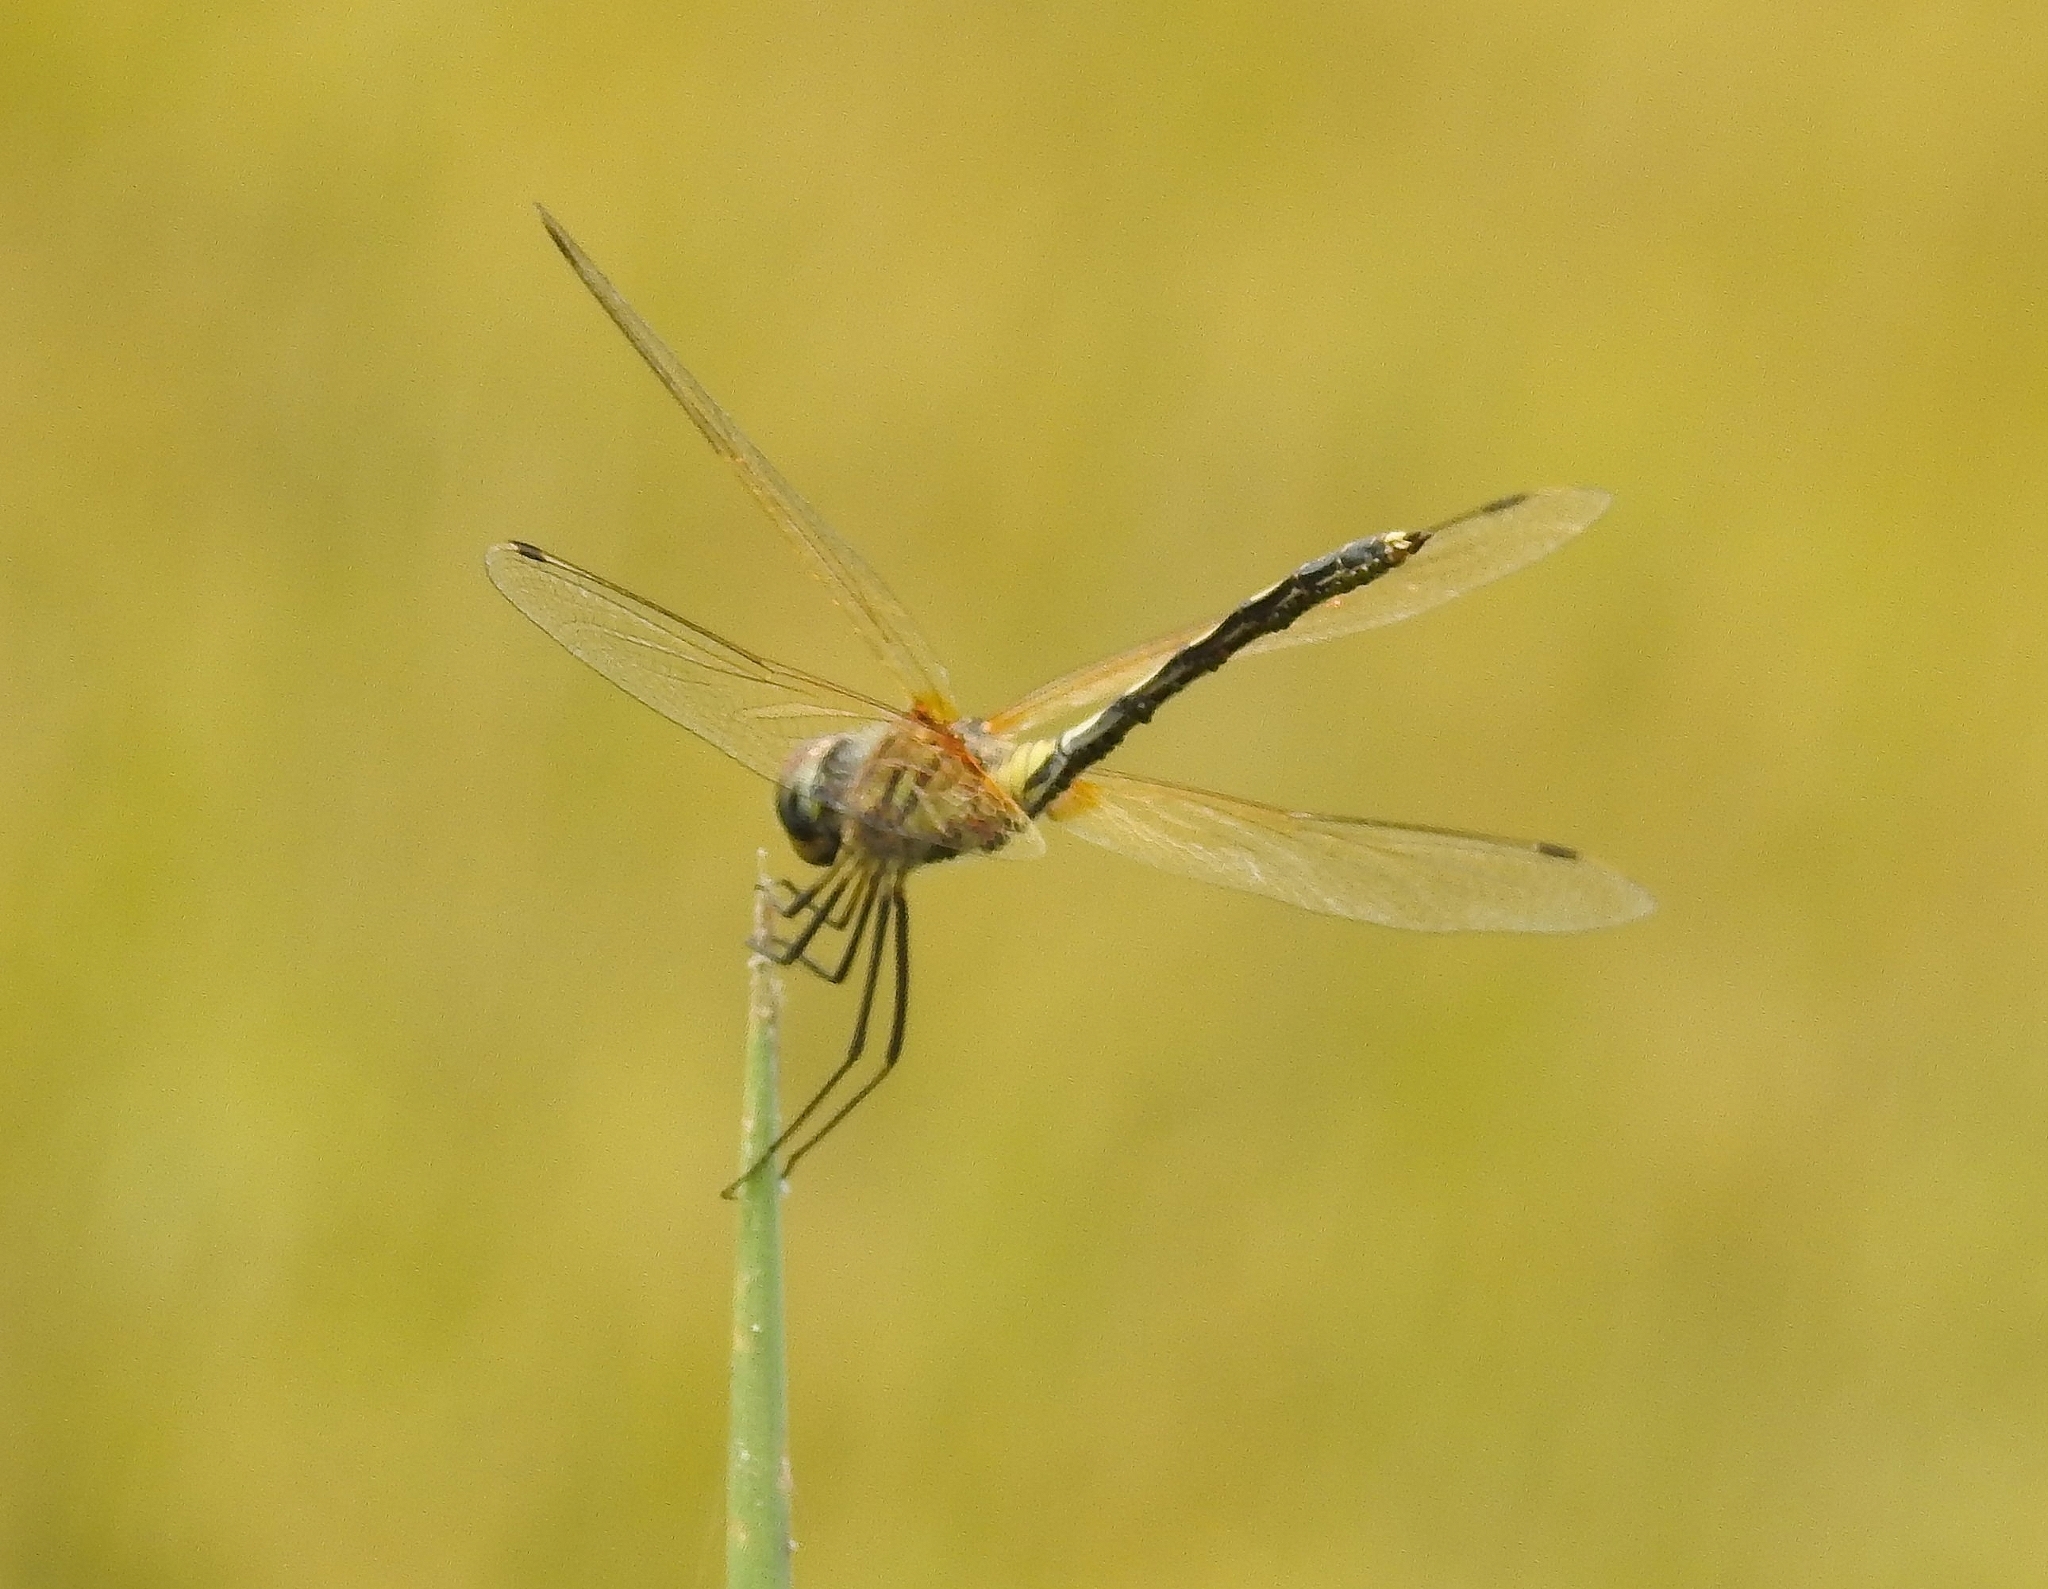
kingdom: Animalia
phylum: Arthropoda
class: Insecta
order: Odonata
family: Libellulidae
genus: Trithemis
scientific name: Trithemis pallidinervis
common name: Dancing dropwing
